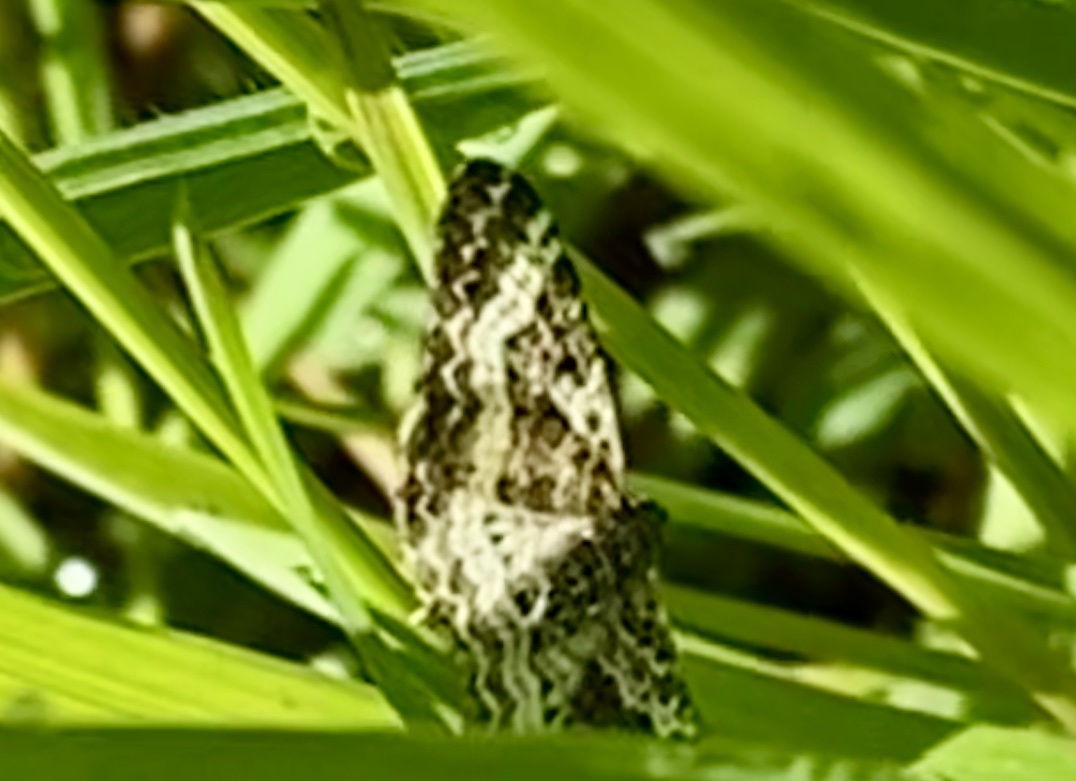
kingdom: Animalia
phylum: Arthropoda
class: Insecta
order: Lepidoptera
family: Geometridae
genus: Epirrhoe
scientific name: Epirrhoe alternata
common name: Common carpet
